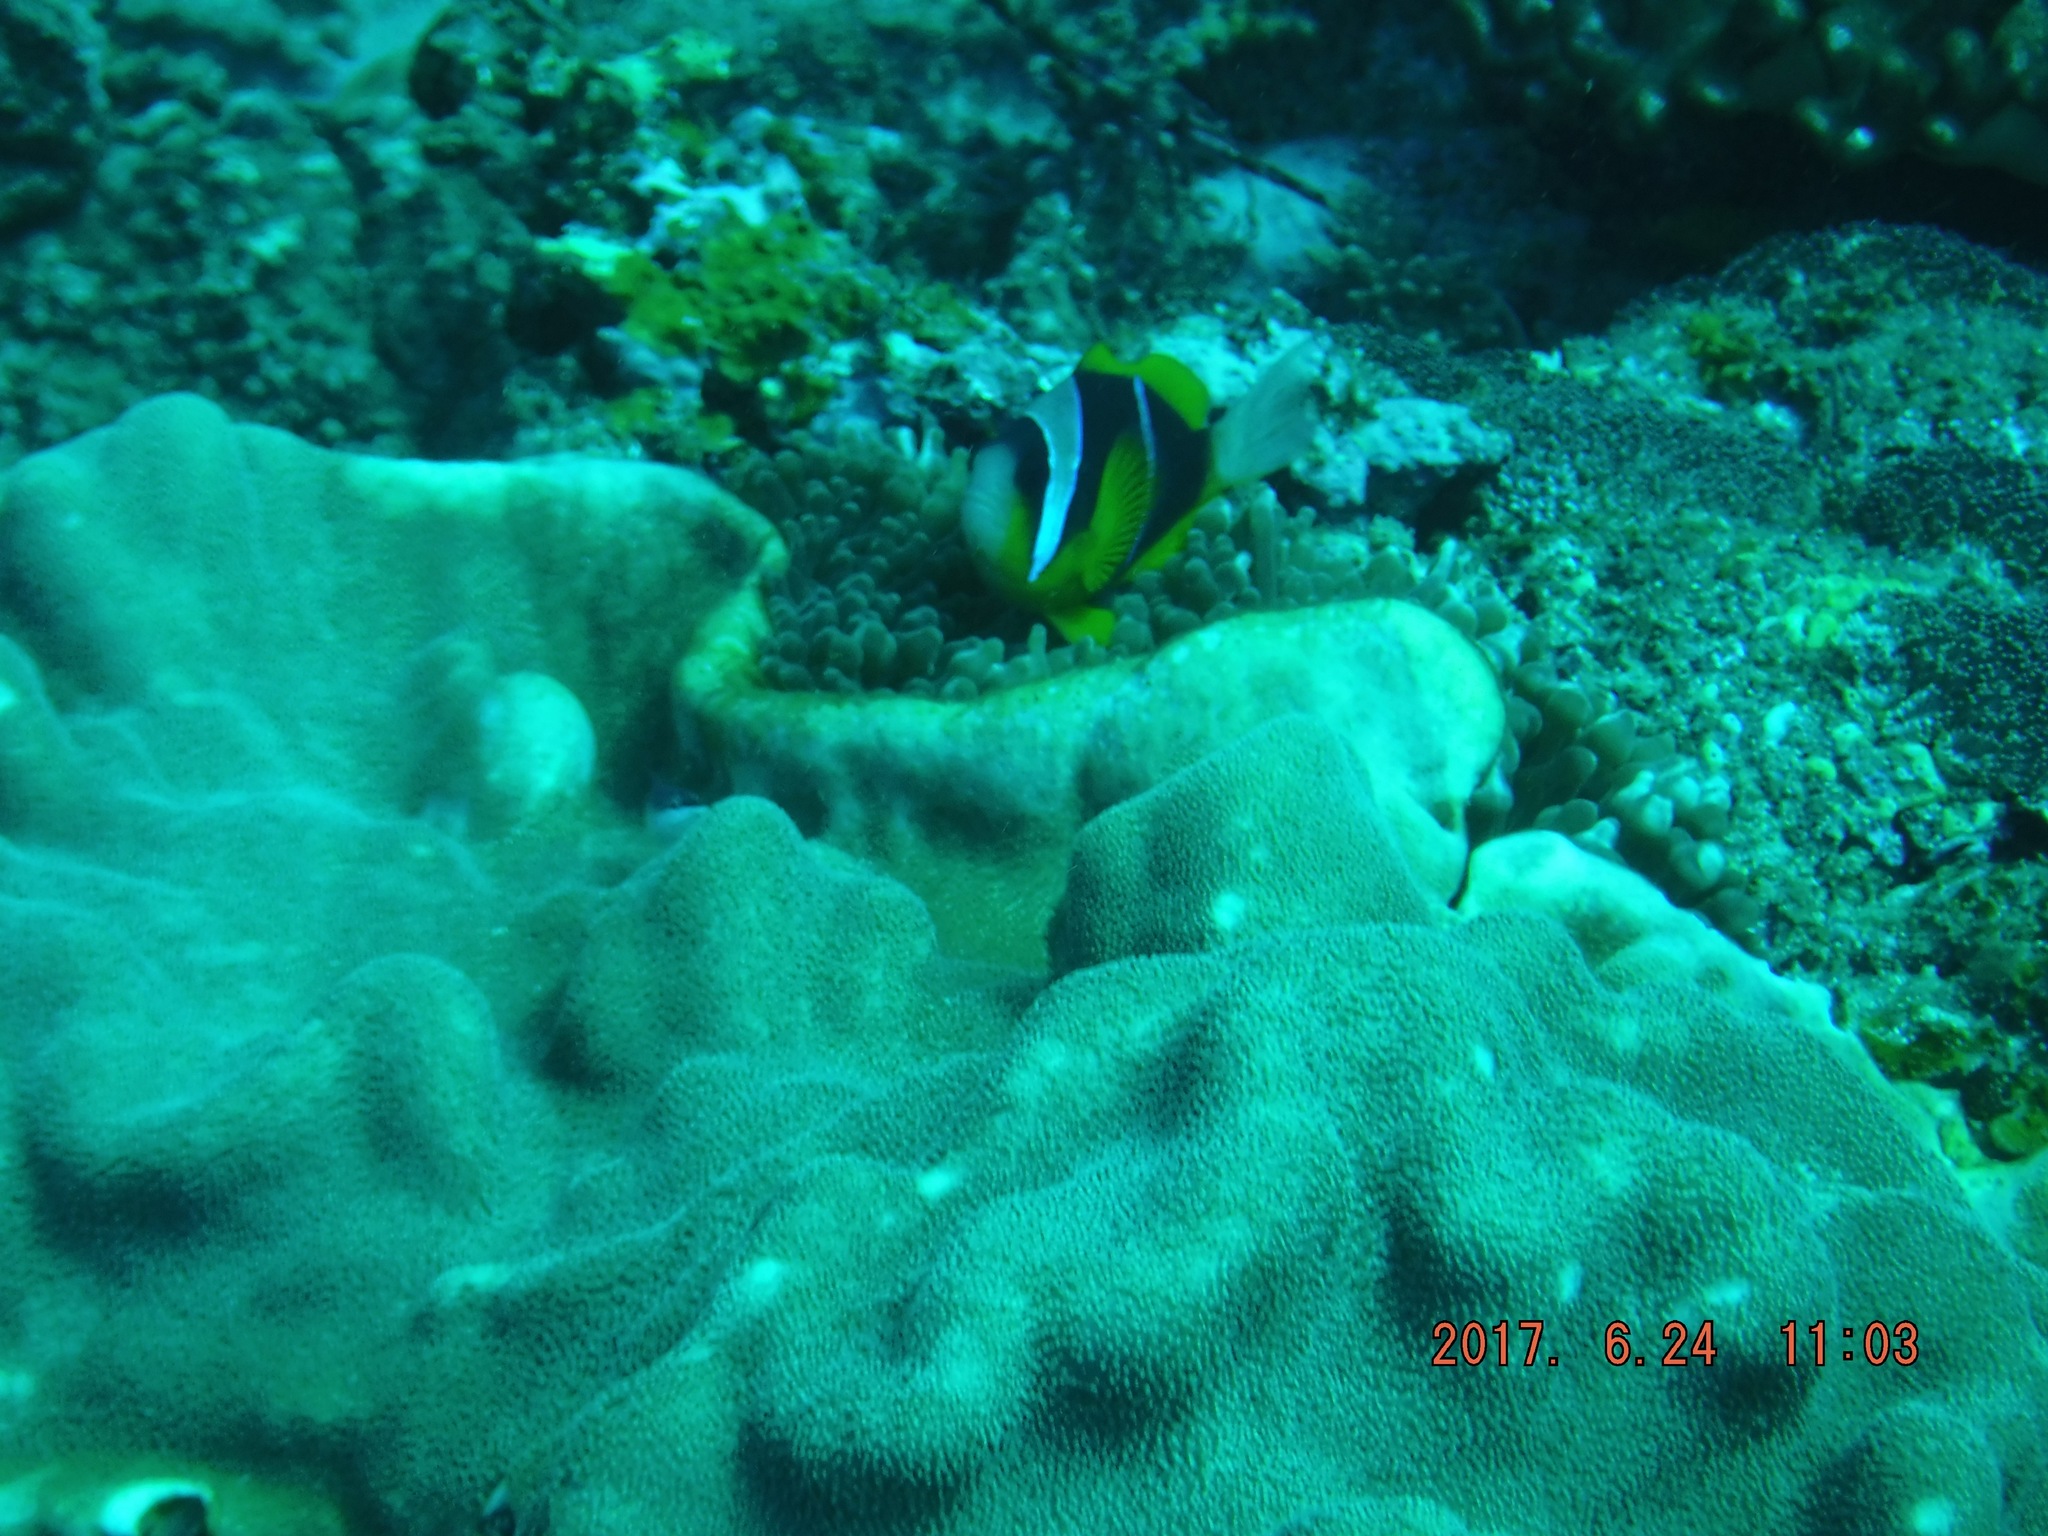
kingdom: Animalia
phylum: Chordata
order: Perciformes
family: Pomacentridae
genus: Amphiprion
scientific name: Amphiprion allardi
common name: Allard's anemonefish
